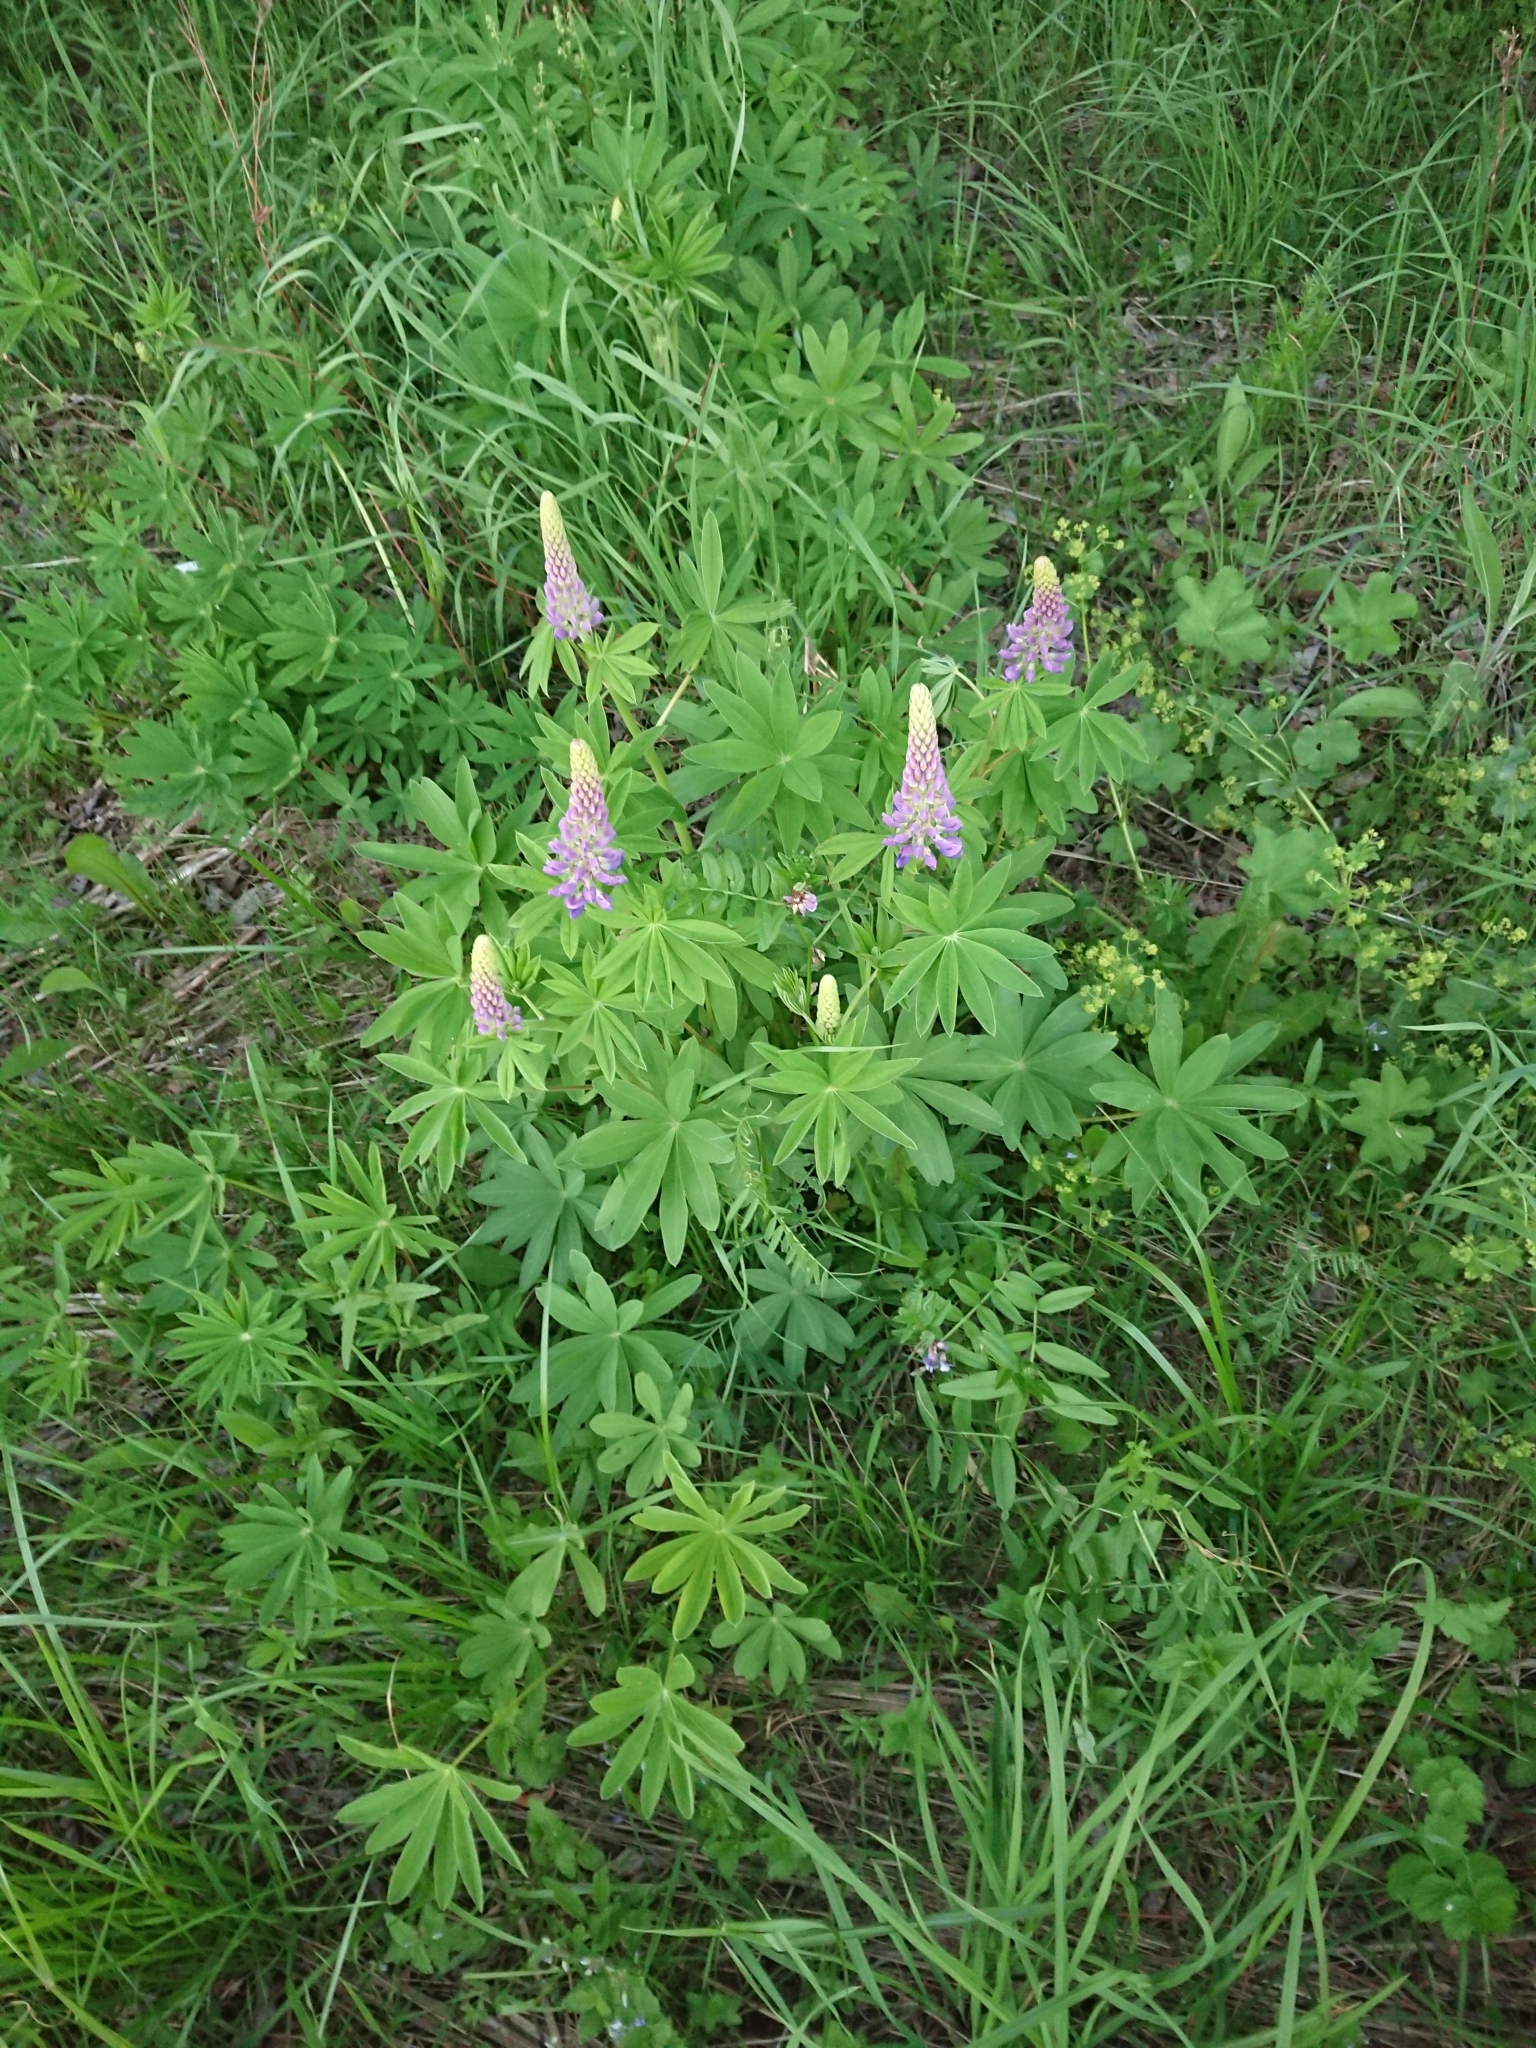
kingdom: Plantae
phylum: Tracheophyta
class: Magnoliopsida
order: Fabales
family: Fabaceae
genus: Lupinus
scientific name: Lupinus polyphyllus
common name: Garden lupin
